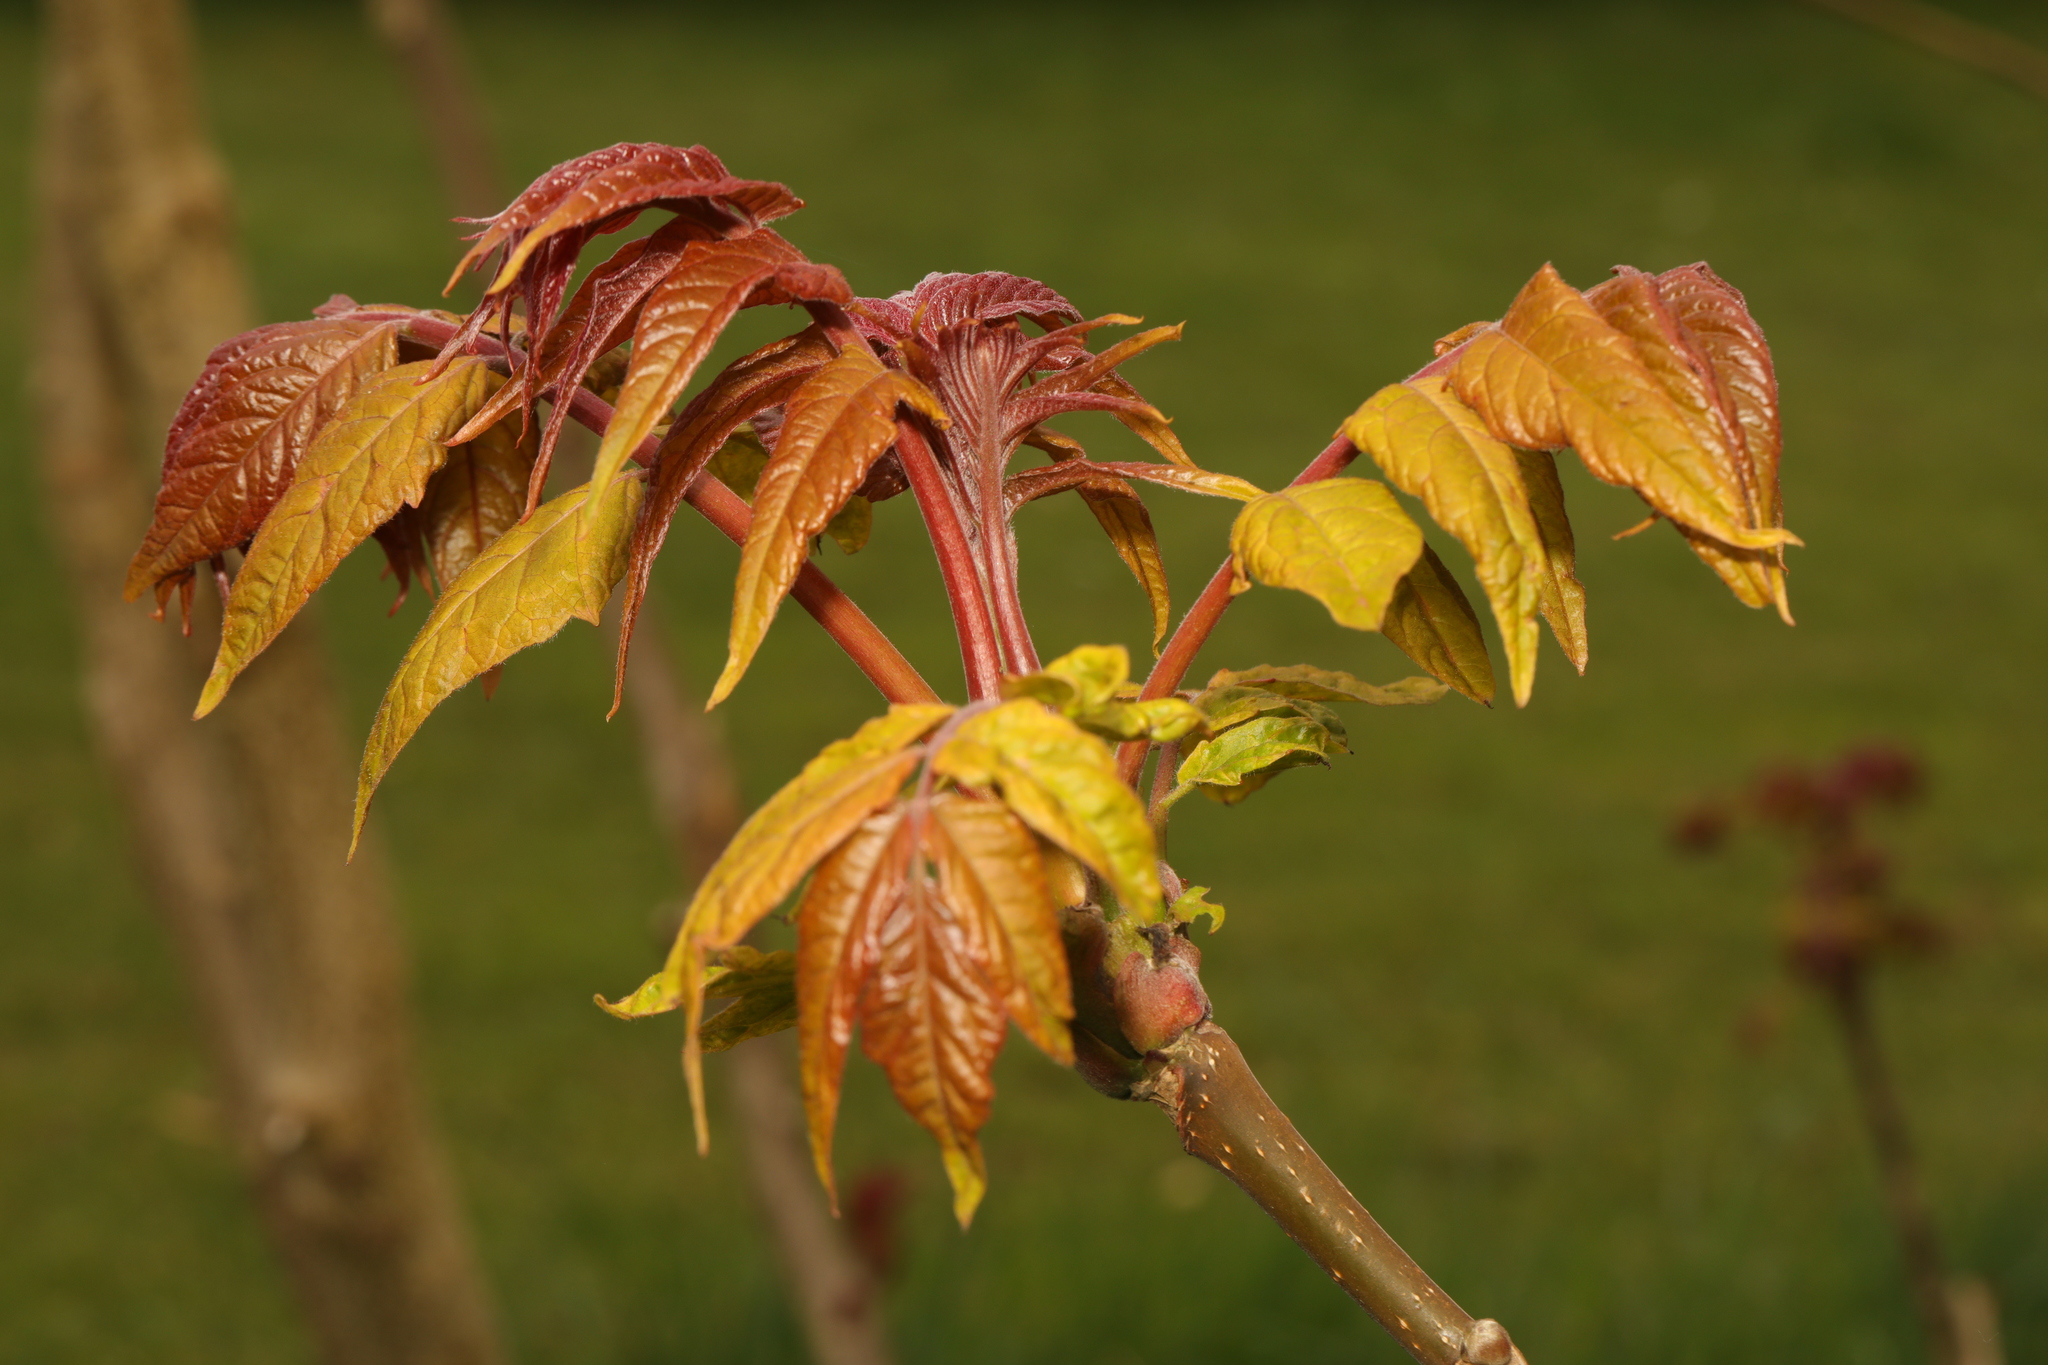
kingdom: Plantae
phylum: Tracheophyta
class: Magnoliopsida
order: Sapindales
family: Anacardiaceae
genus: Rhus
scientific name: Rhus typhina
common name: Staghorn sumac
